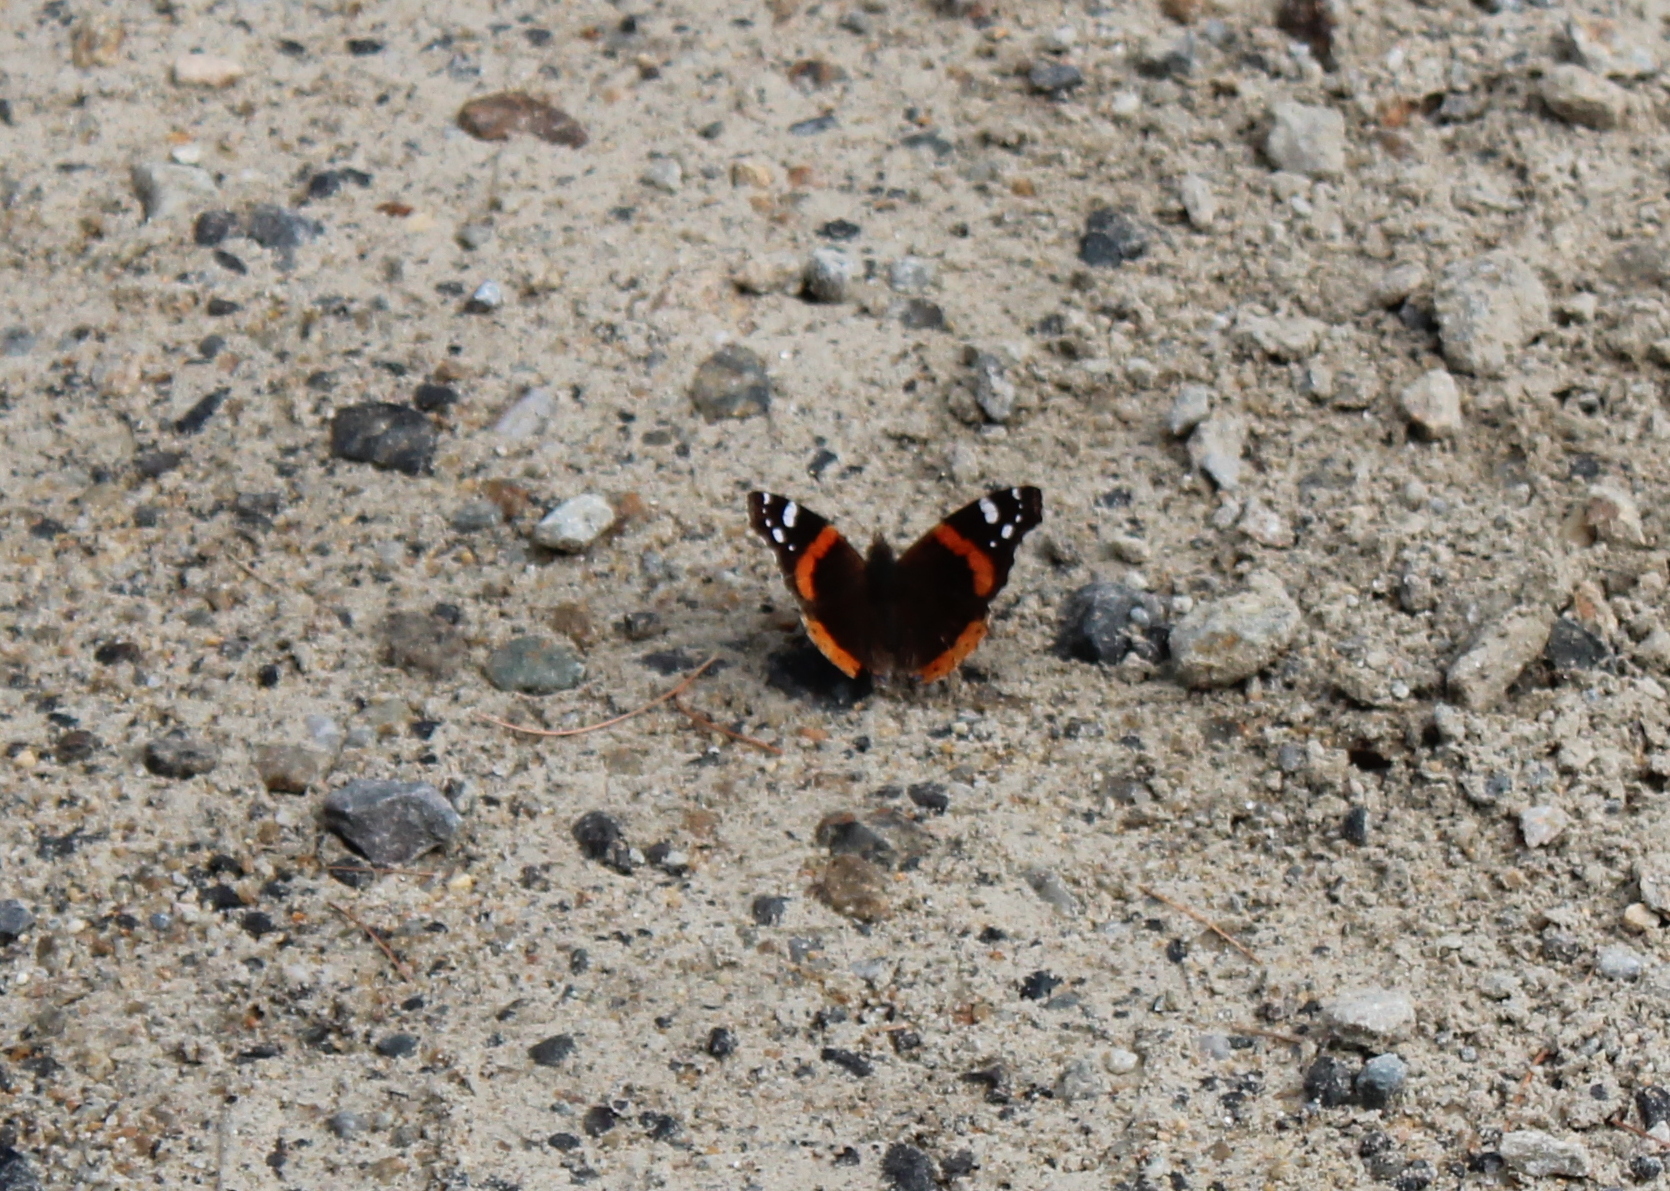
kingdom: Animalia
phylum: Arthropoda
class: Insecta
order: Lepidoptera
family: Nymphalidae
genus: Vanessa
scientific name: Vanessa atalanta
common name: Red admiral
